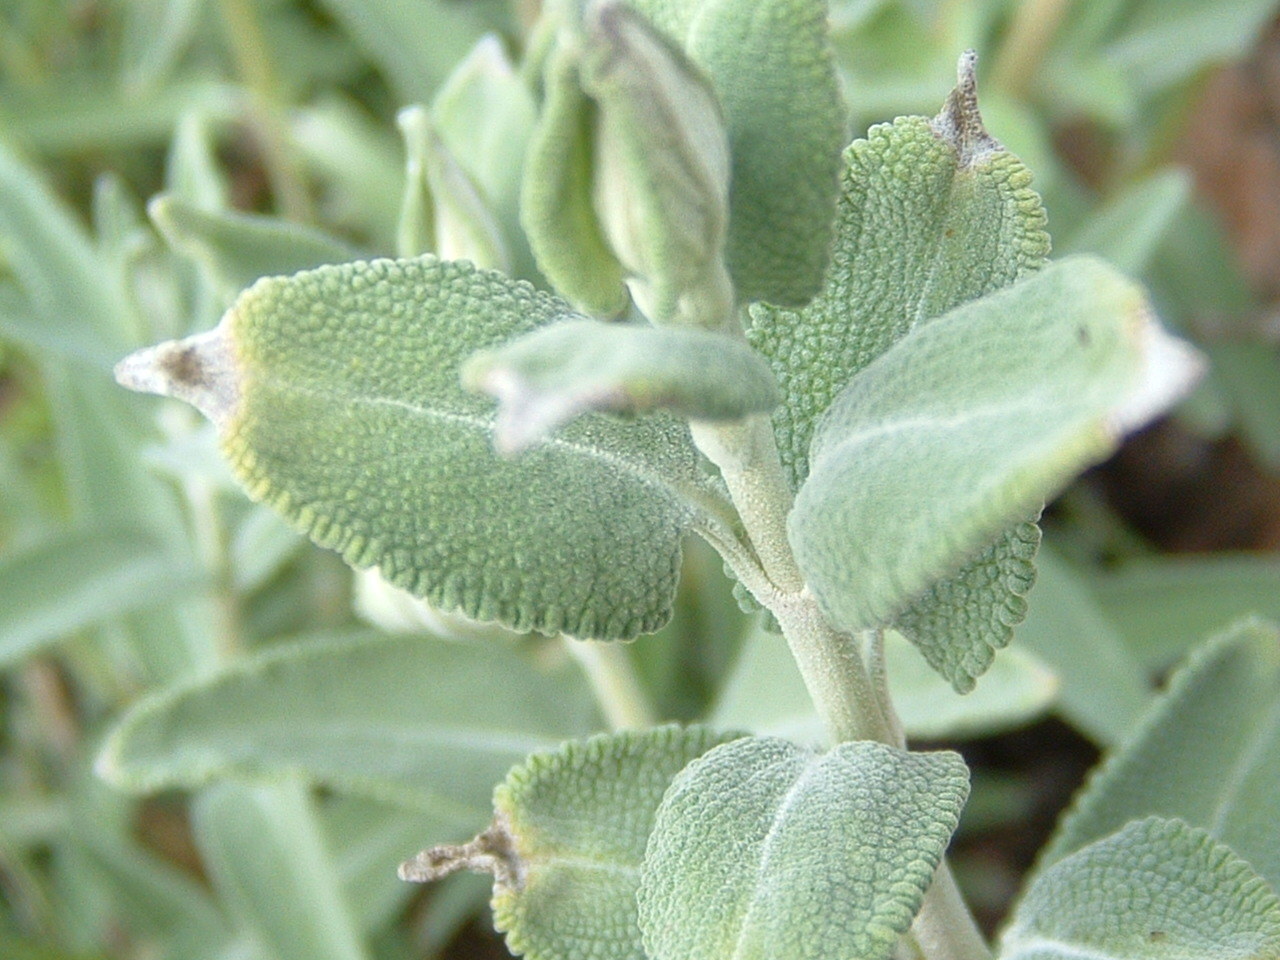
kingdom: Plantae
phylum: Tracheophyta
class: Magnoliopsida
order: Lamiales
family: Lamiaceae
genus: Salvia
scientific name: Salvia leucophylla
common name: Purple sage
